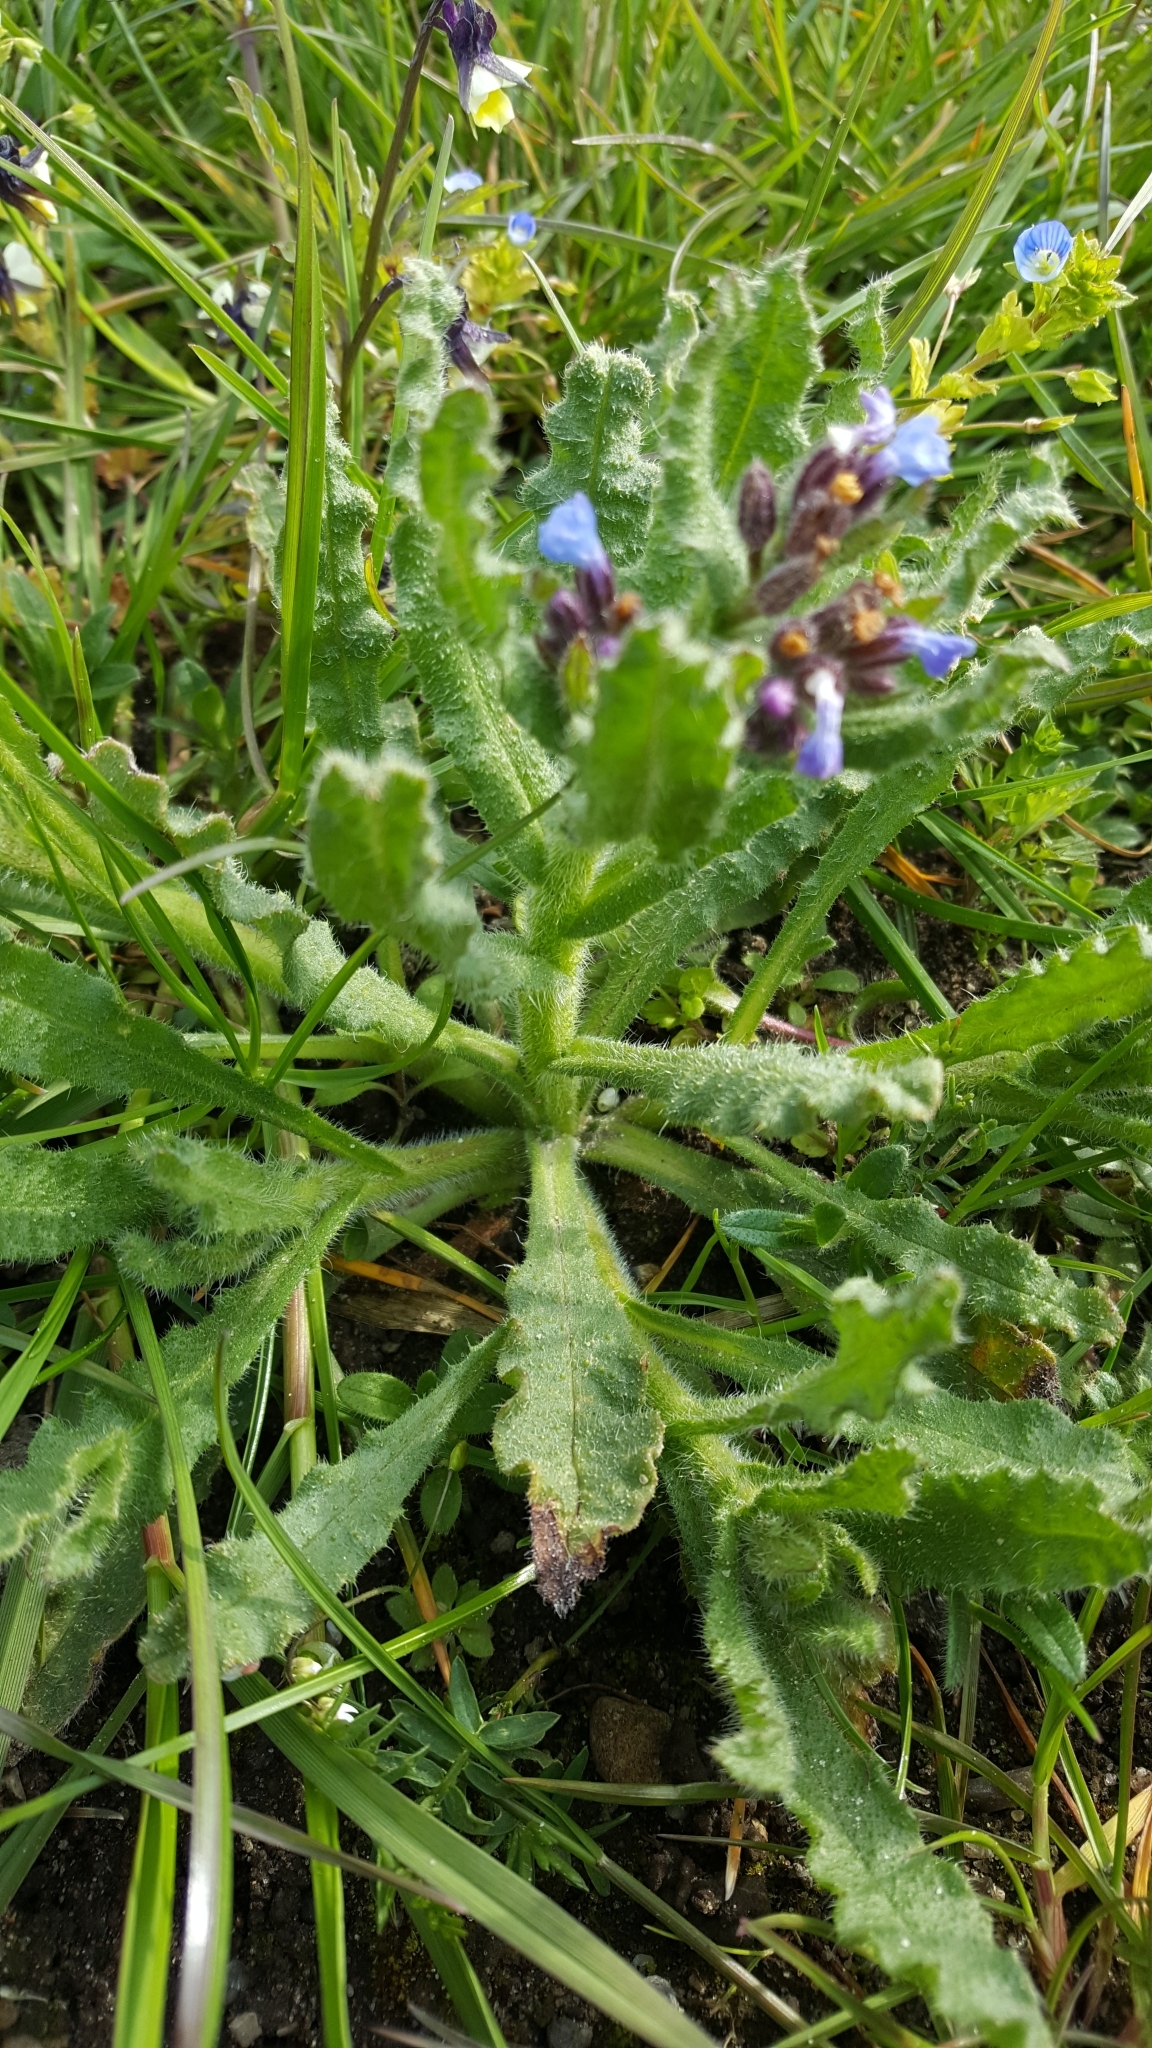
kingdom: Plantae
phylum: Tracheophyta
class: Magnoliopsida
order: Boraginales
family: Boraginaceae
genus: Lycopsis
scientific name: Lycopsis arvensis
